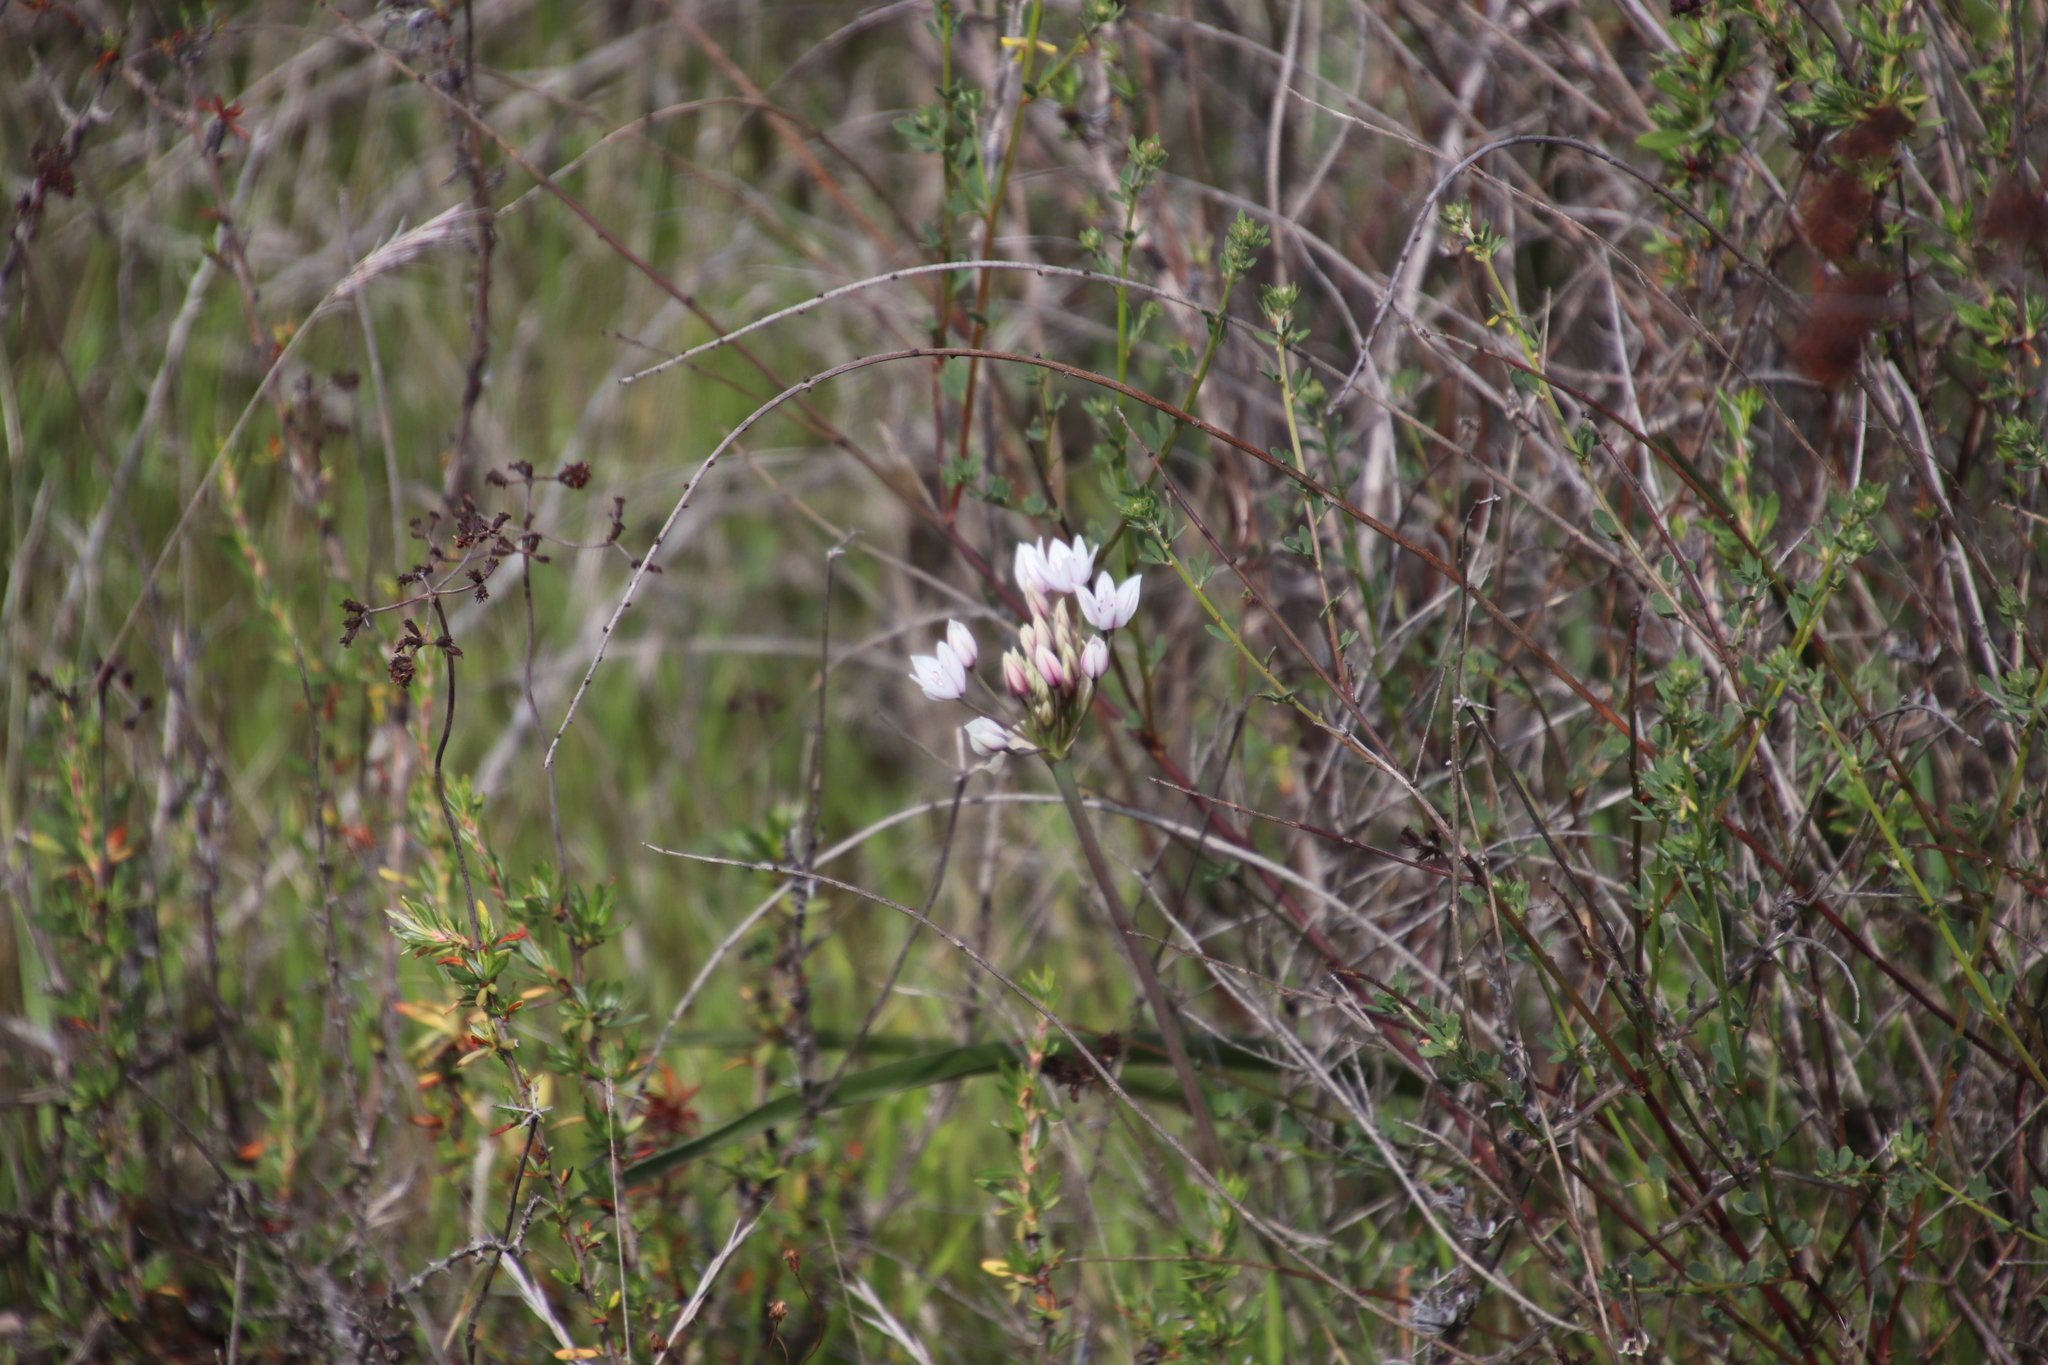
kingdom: Plantae
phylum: Tracheophyta
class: Liliopsida
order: Asparagales
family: Amaryllidaceae
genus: Allium
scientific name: Allium praecox
